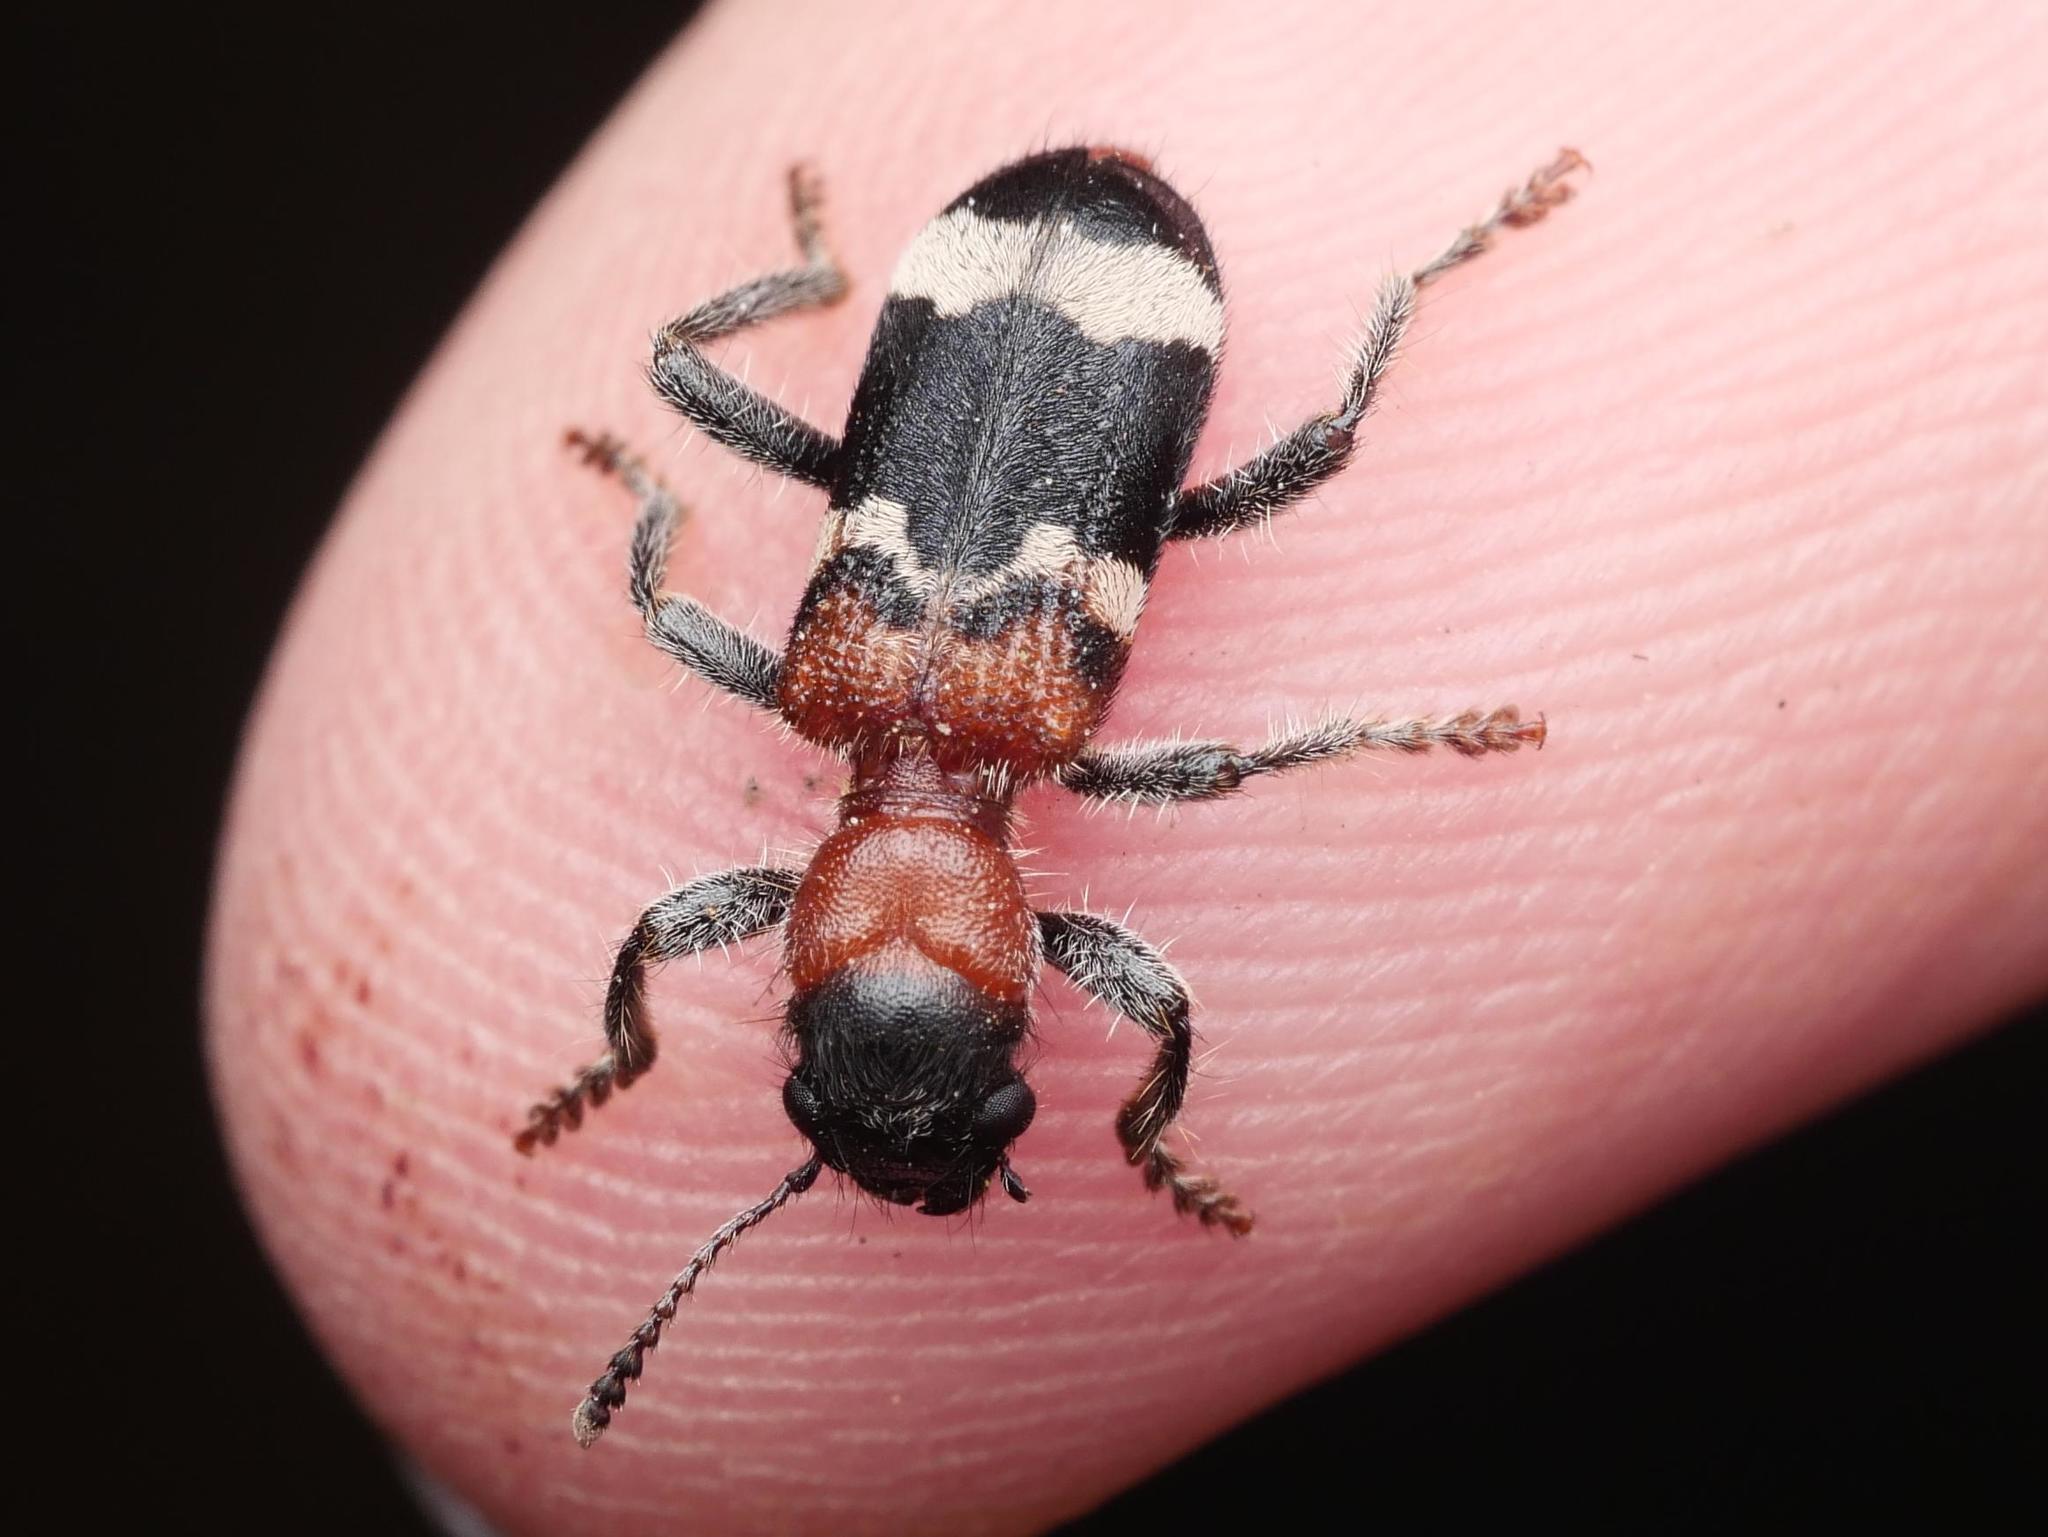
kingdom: Animalia
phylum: Arthropoda
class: Insecta
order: Coleoptera
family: Cleridae
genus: Thanasimus
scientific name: Thanasimus formicarius
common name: Ant beetle
